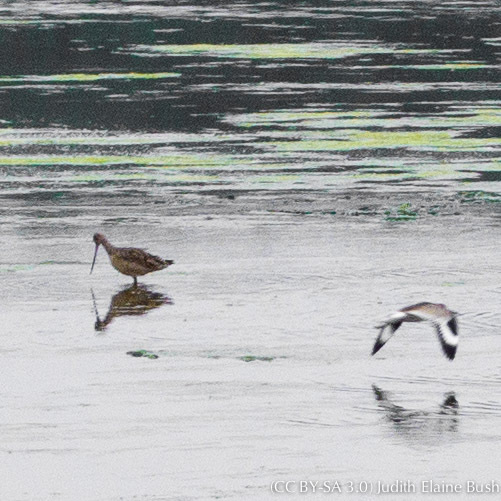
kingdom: Animalia
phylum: Chordata
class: Aves
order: Charadriiformes
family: Scolopacidae
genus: Limosa
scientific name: Limosa fedoa
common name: Marbled godwit
